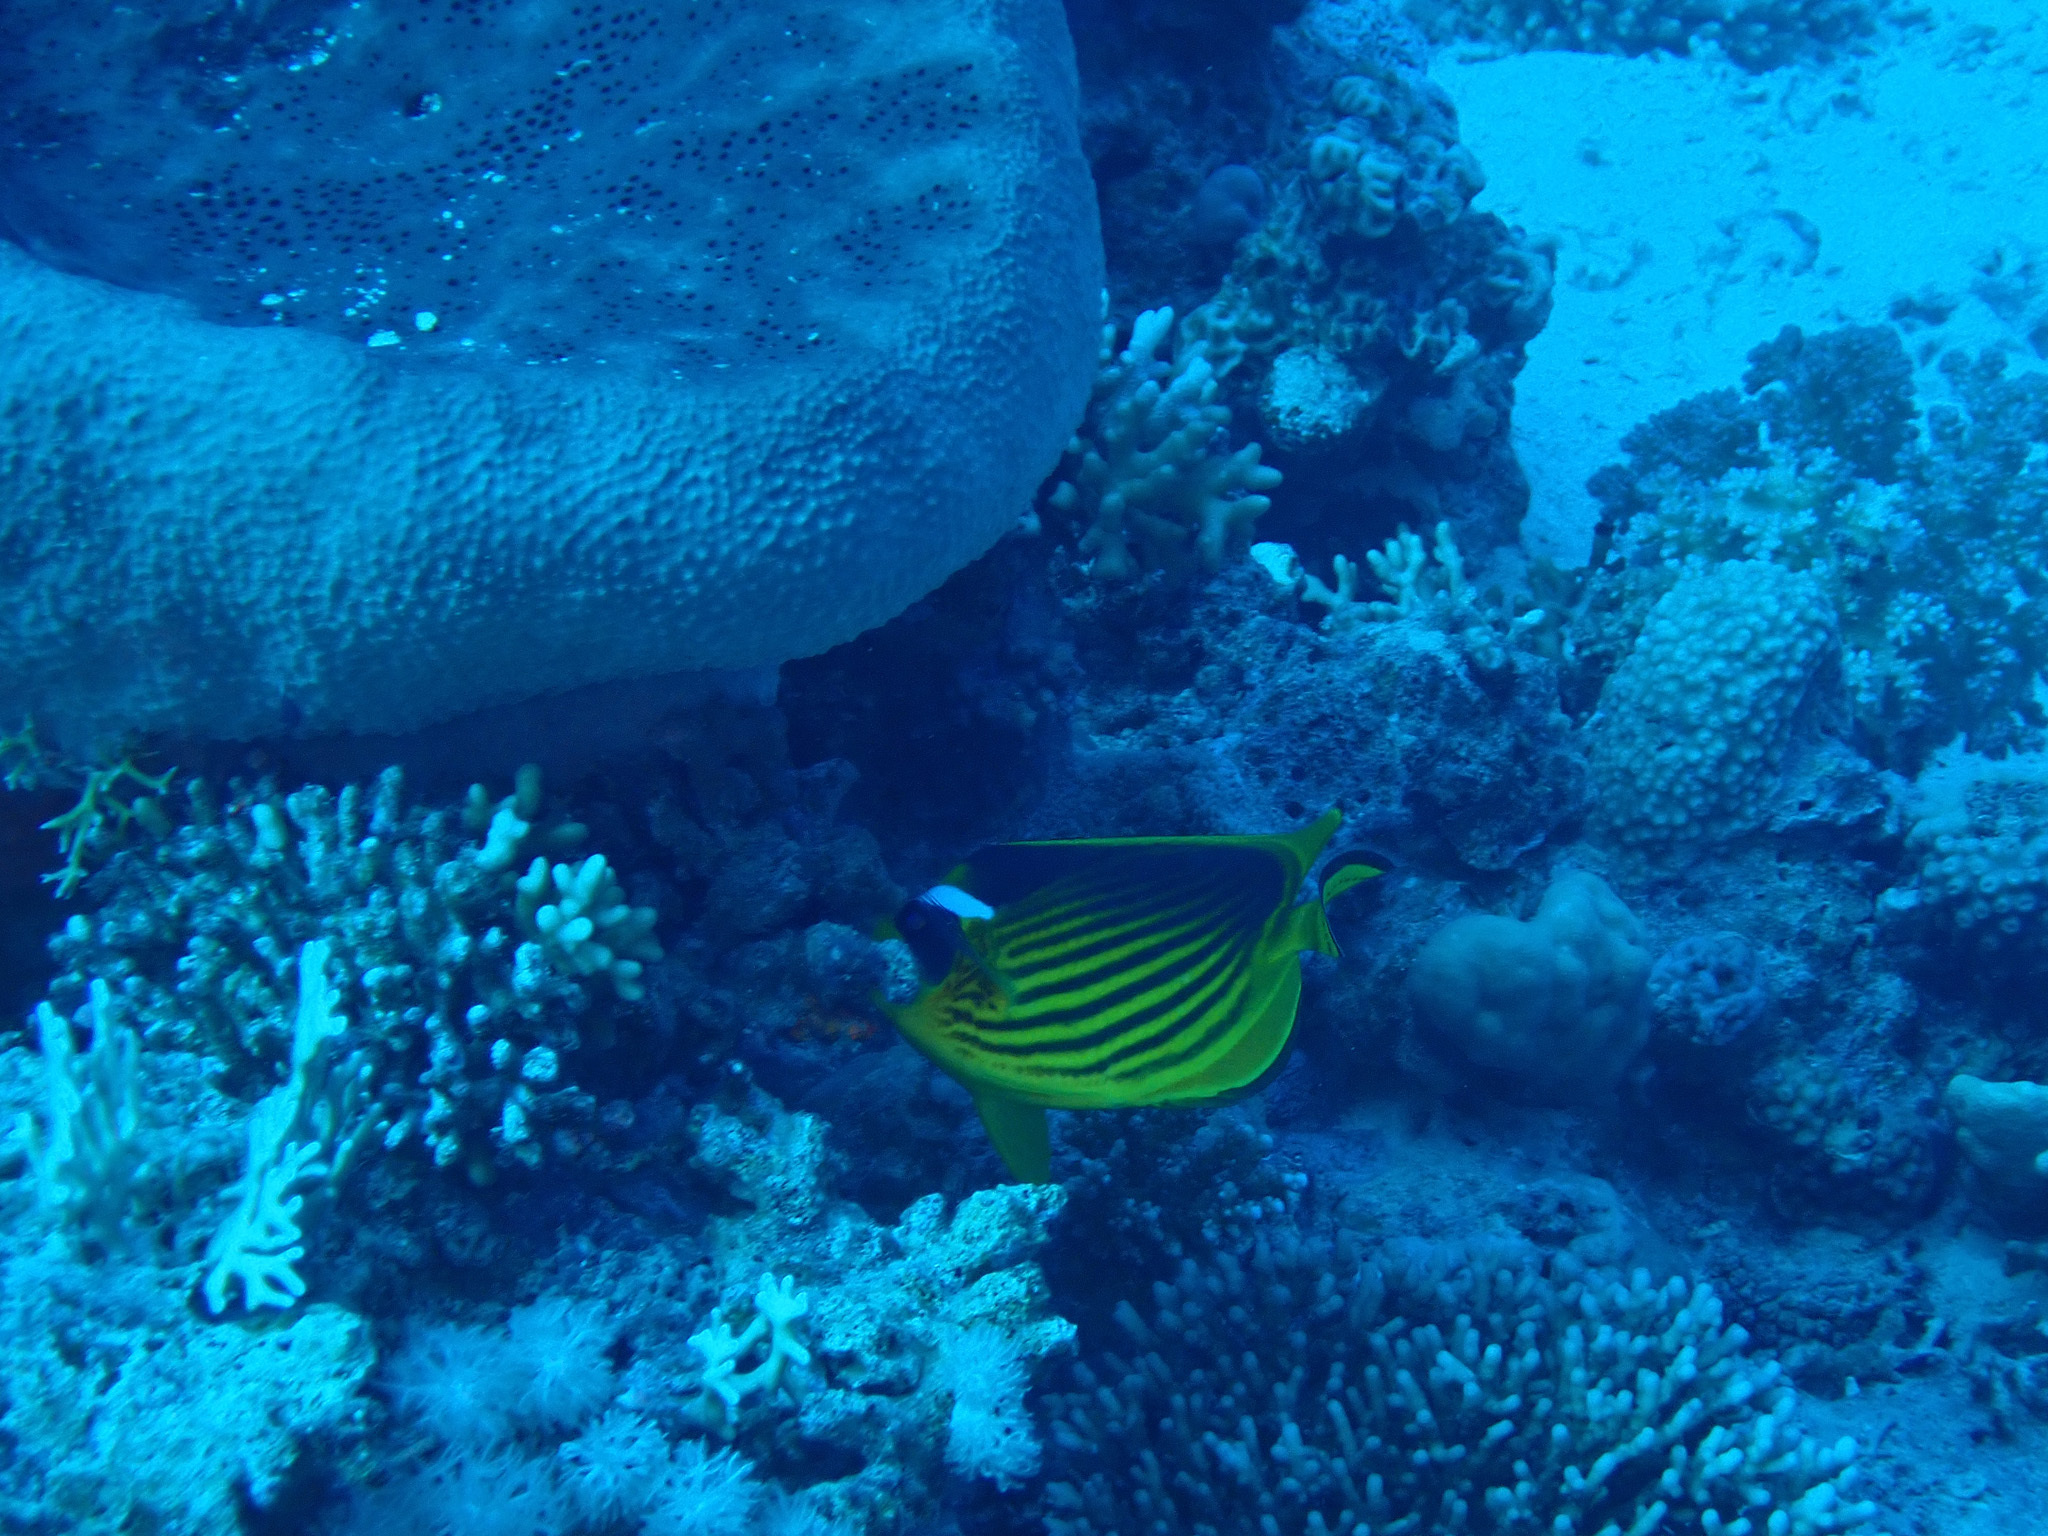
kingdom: Animalia
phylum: Chordata
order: Perciformes
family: Chaetodontidae
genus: Chaetodon
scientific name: Chaetodon fasciatus
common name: Diagonal butterflyfish
